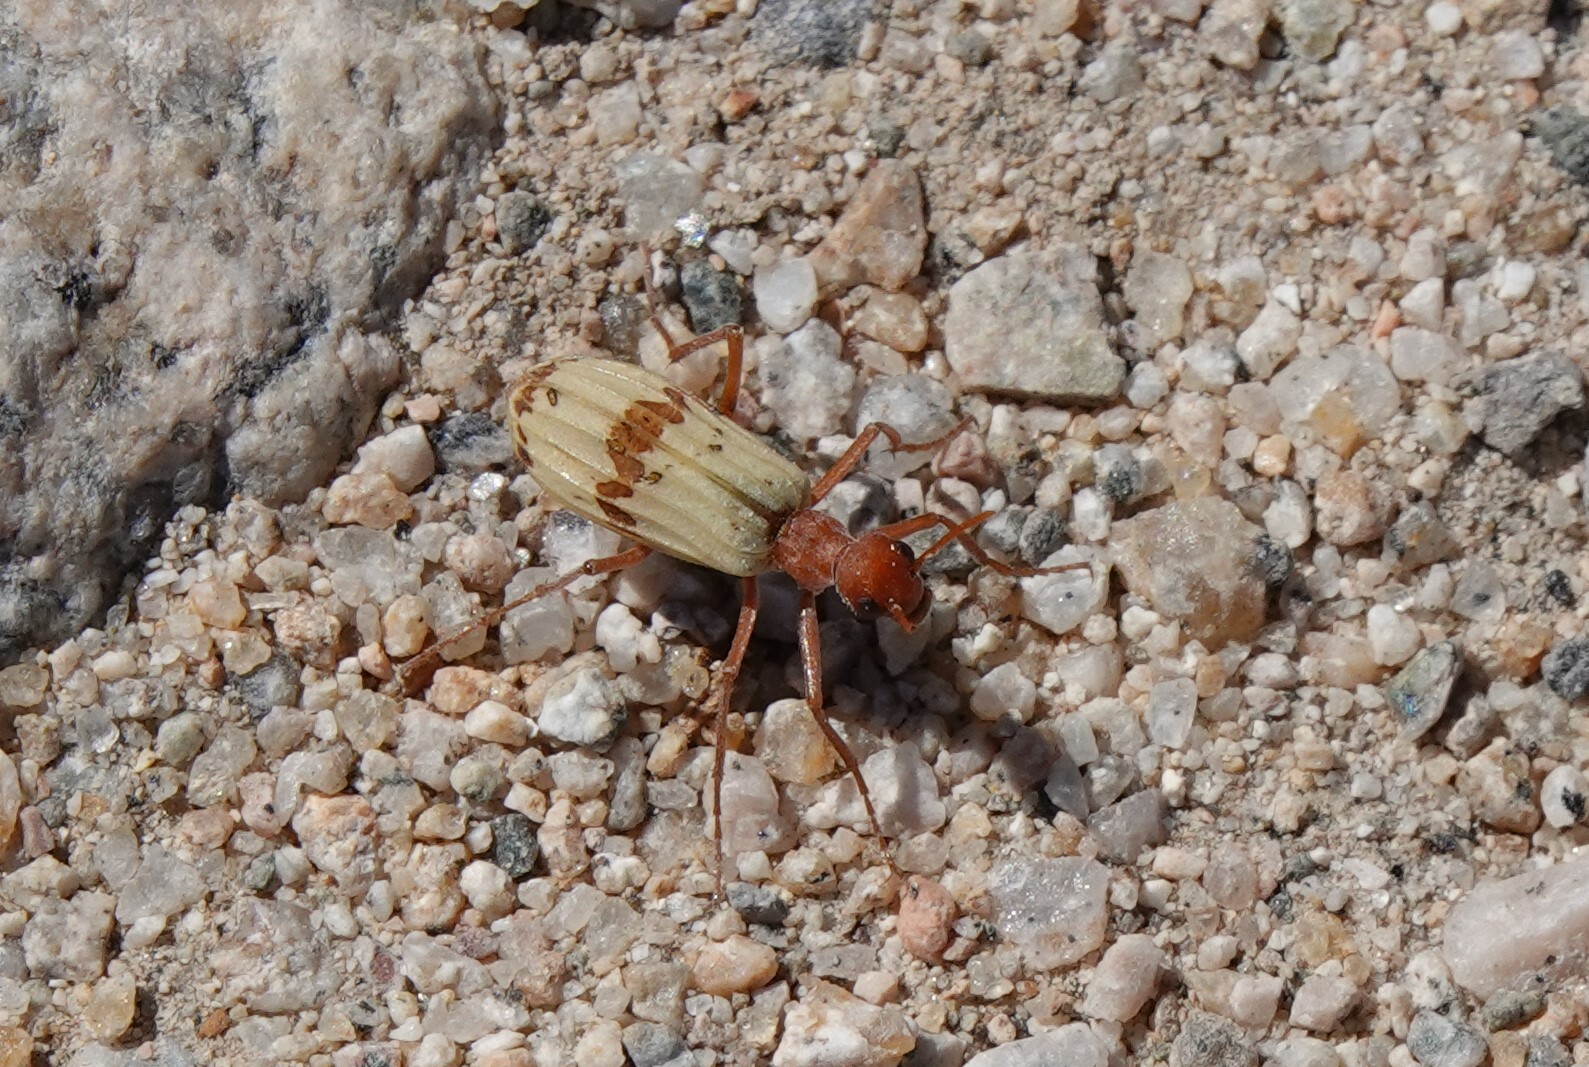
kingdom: Animalia
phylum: Arthropoda
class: Insecta
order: Coleoptera
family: Meloidae
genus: Pleuropasta
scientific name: Pleuropasta mirabilis
